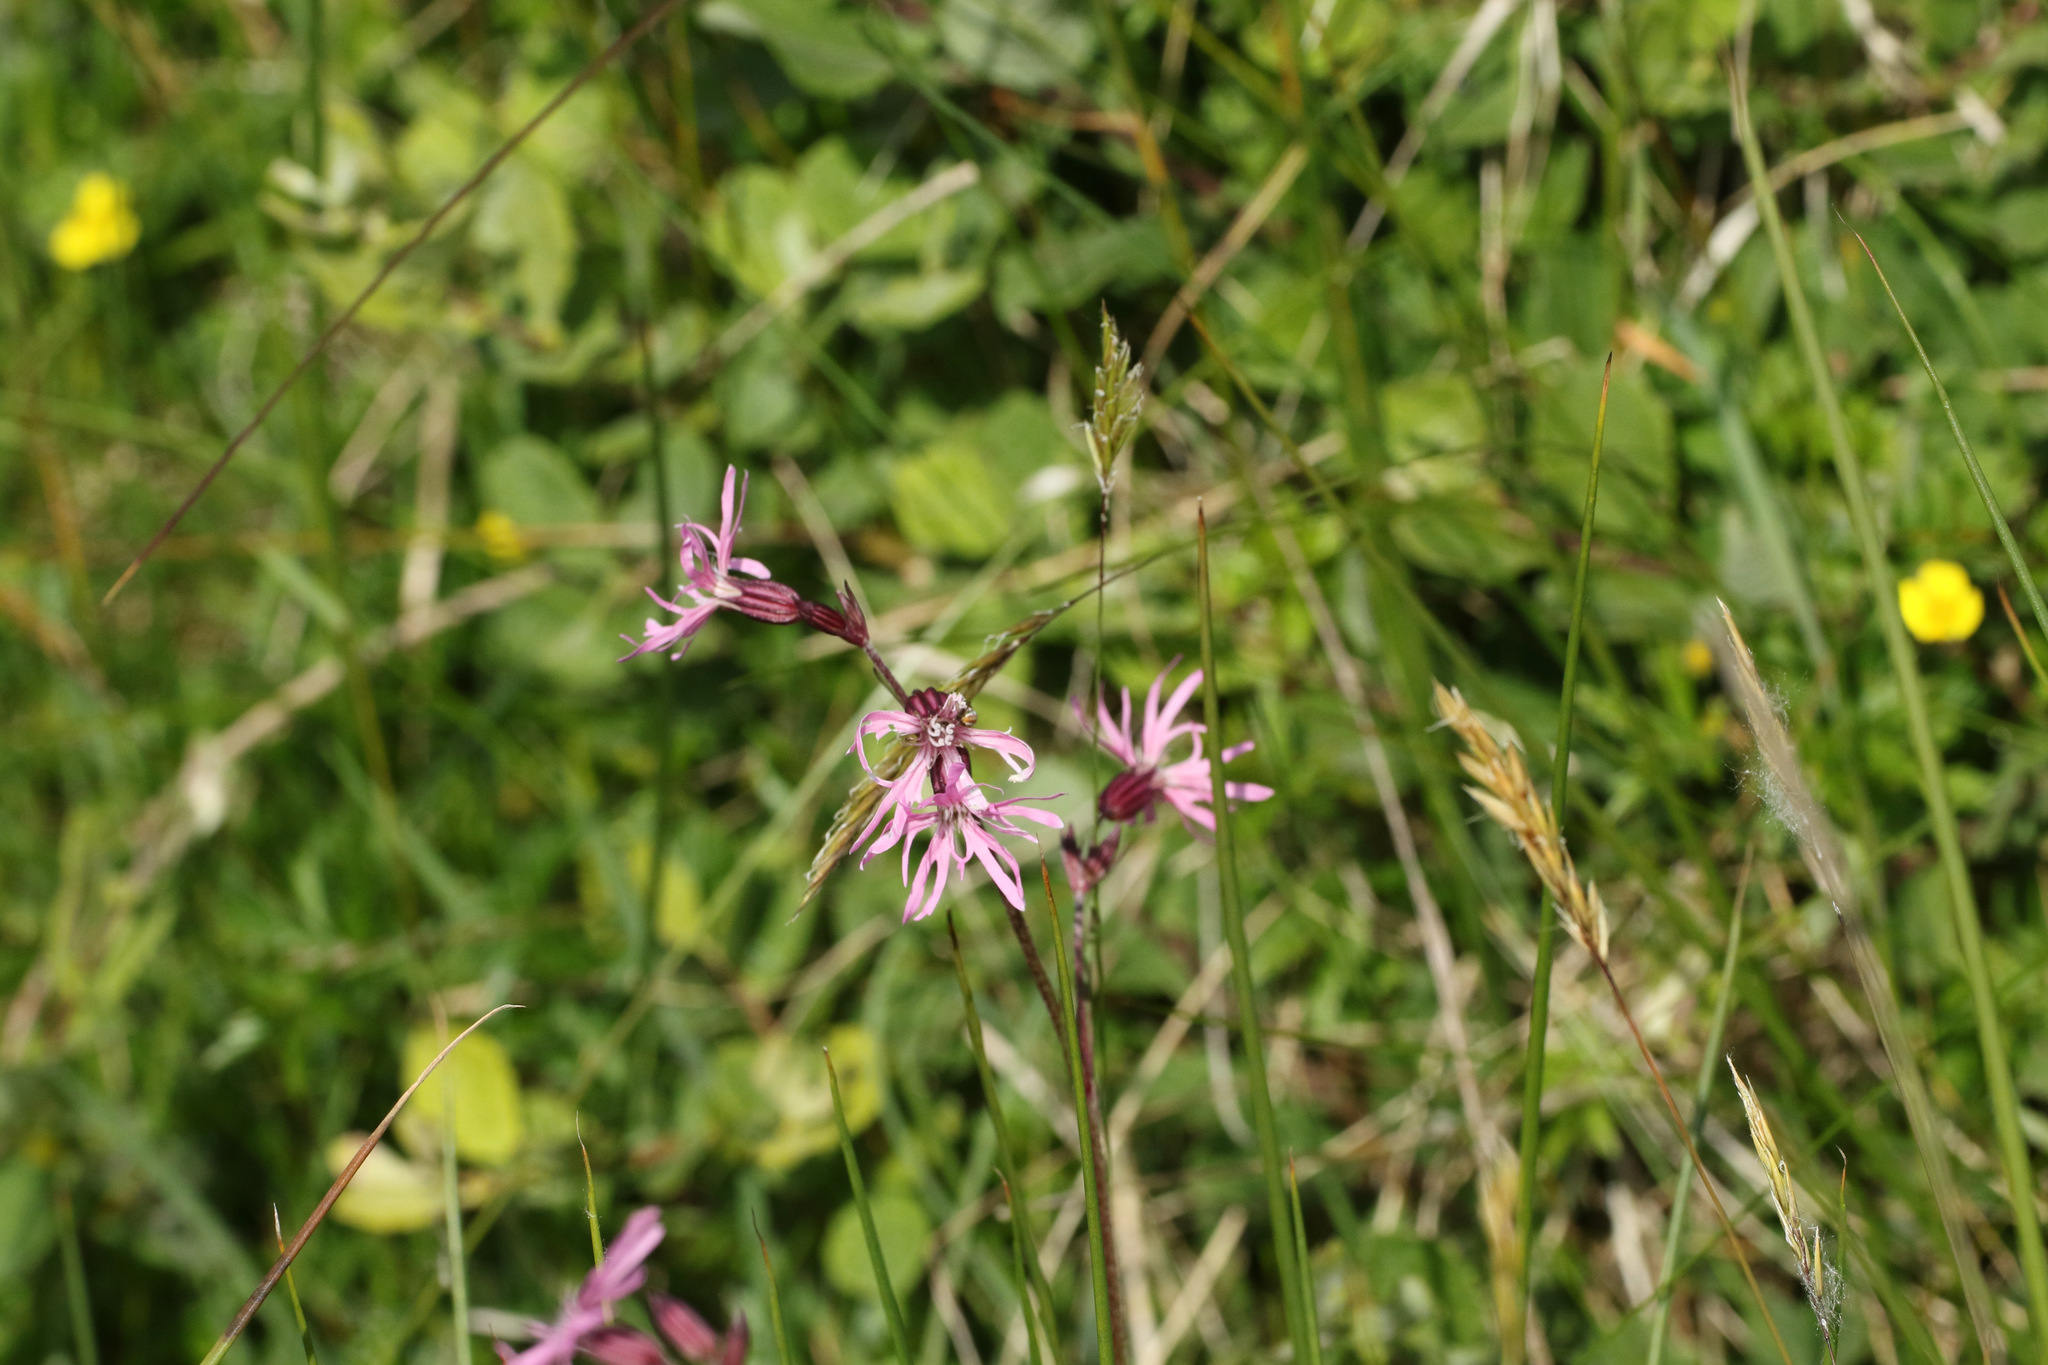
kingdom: Plantae
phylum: Tracheophyta
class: Magnoliopsida
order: Caryophyllales
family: Caryophyllaceae
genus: Silene
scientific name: Silene flos-cuculi
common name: Ragged-robin
